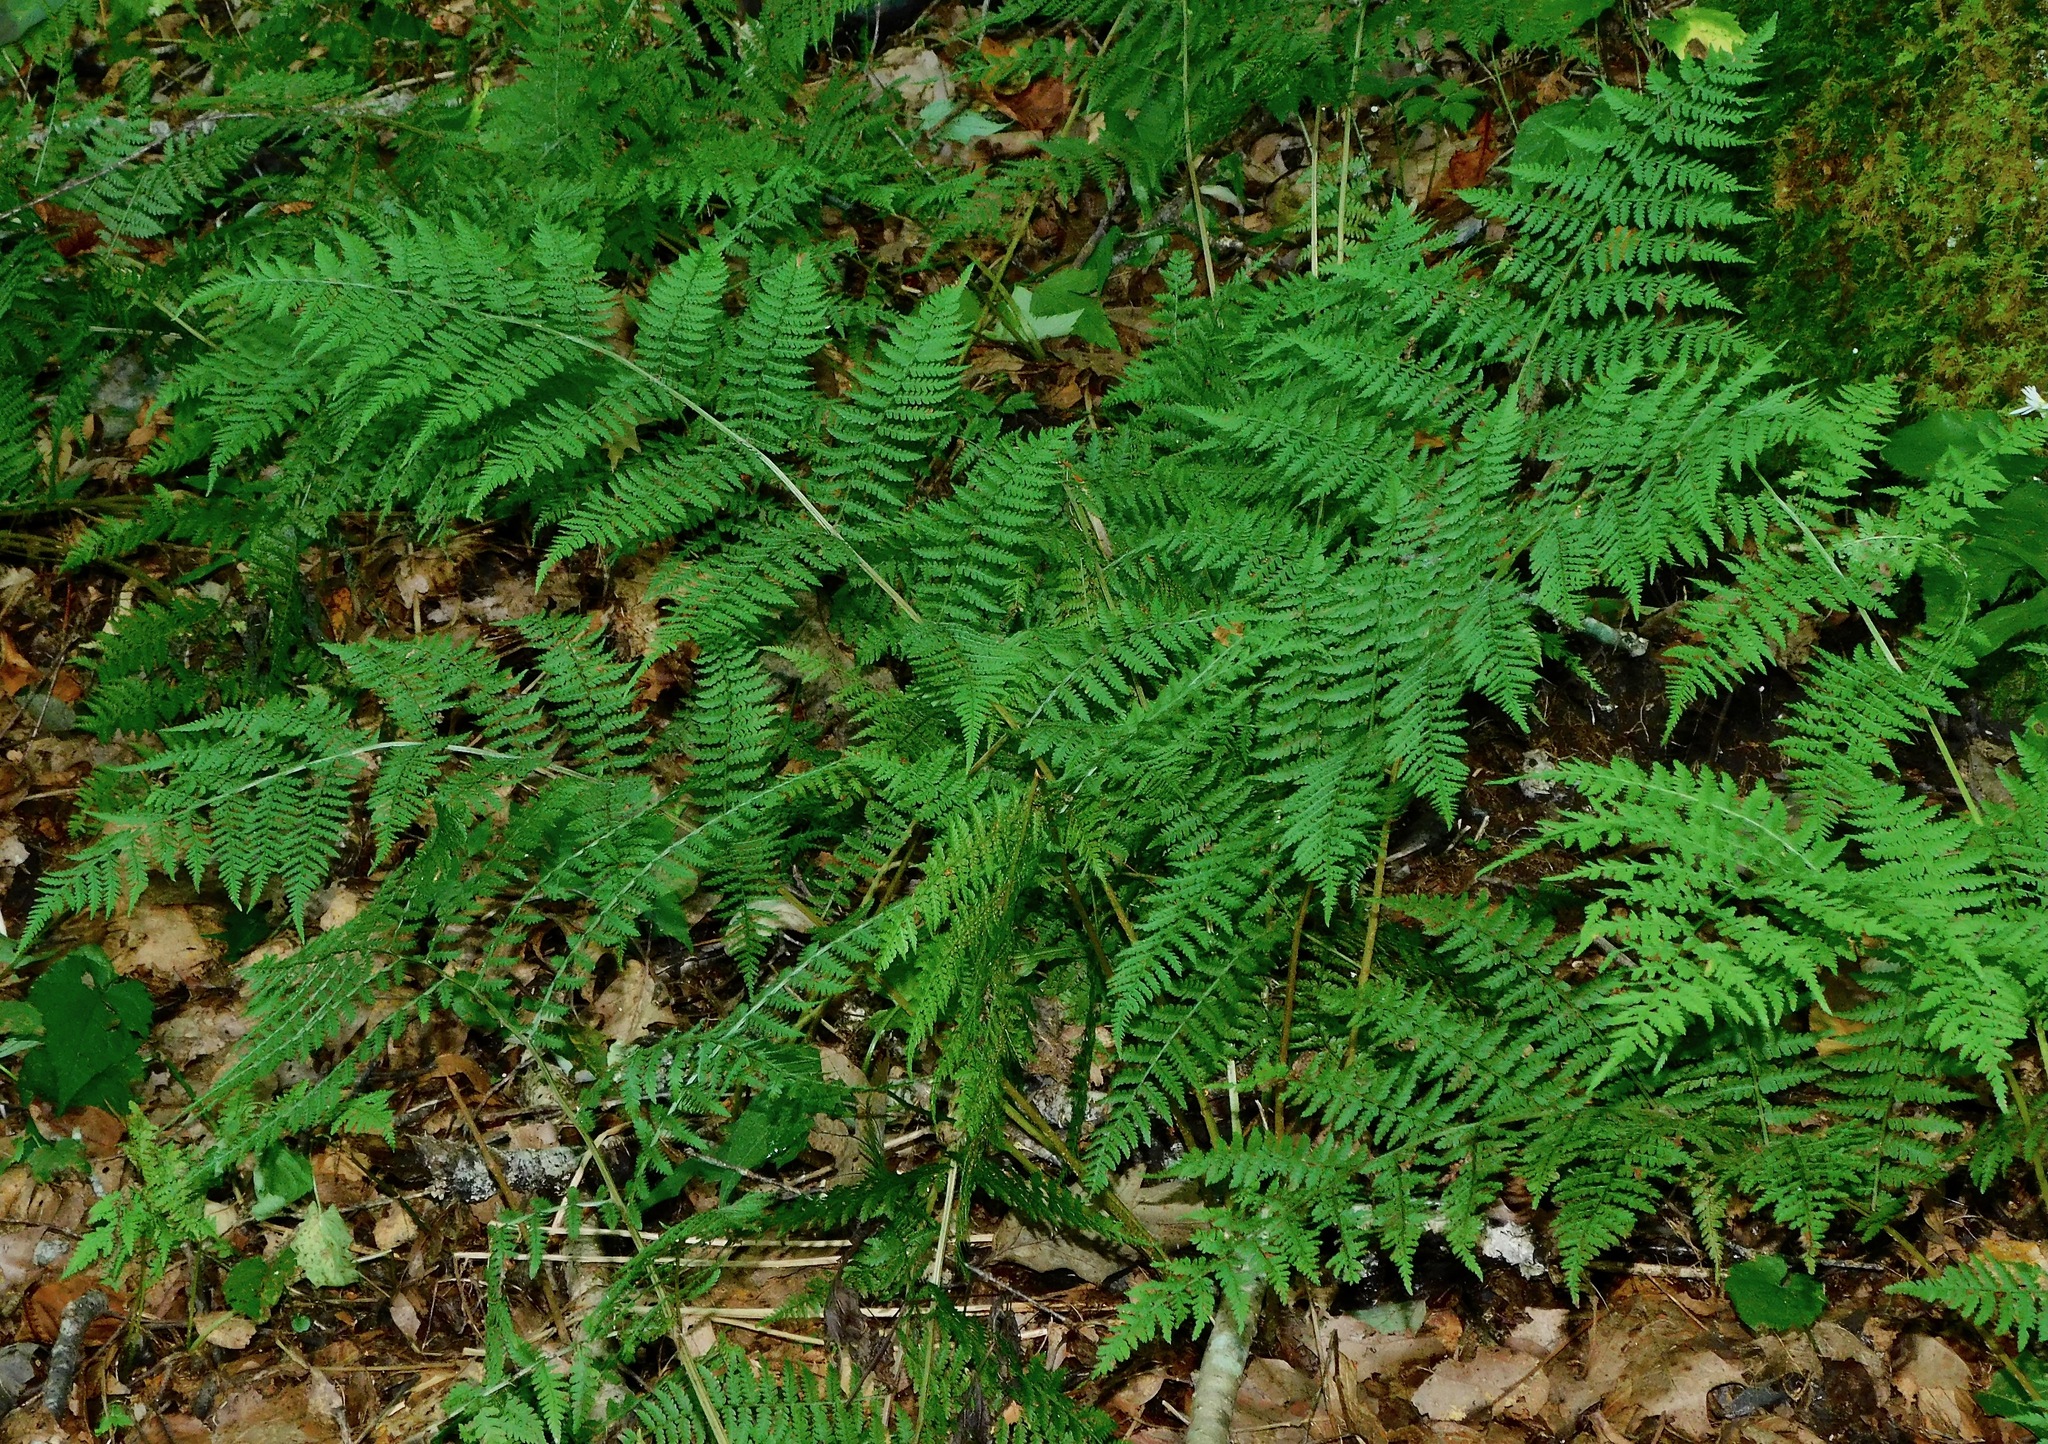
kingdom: Plantae
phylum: Tracheophyta
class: Polypodiopsida
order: Polypodiales
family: Athyriaceae
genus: Athyrium
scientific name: Athyrium asplenioides
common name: Southern lady fern
